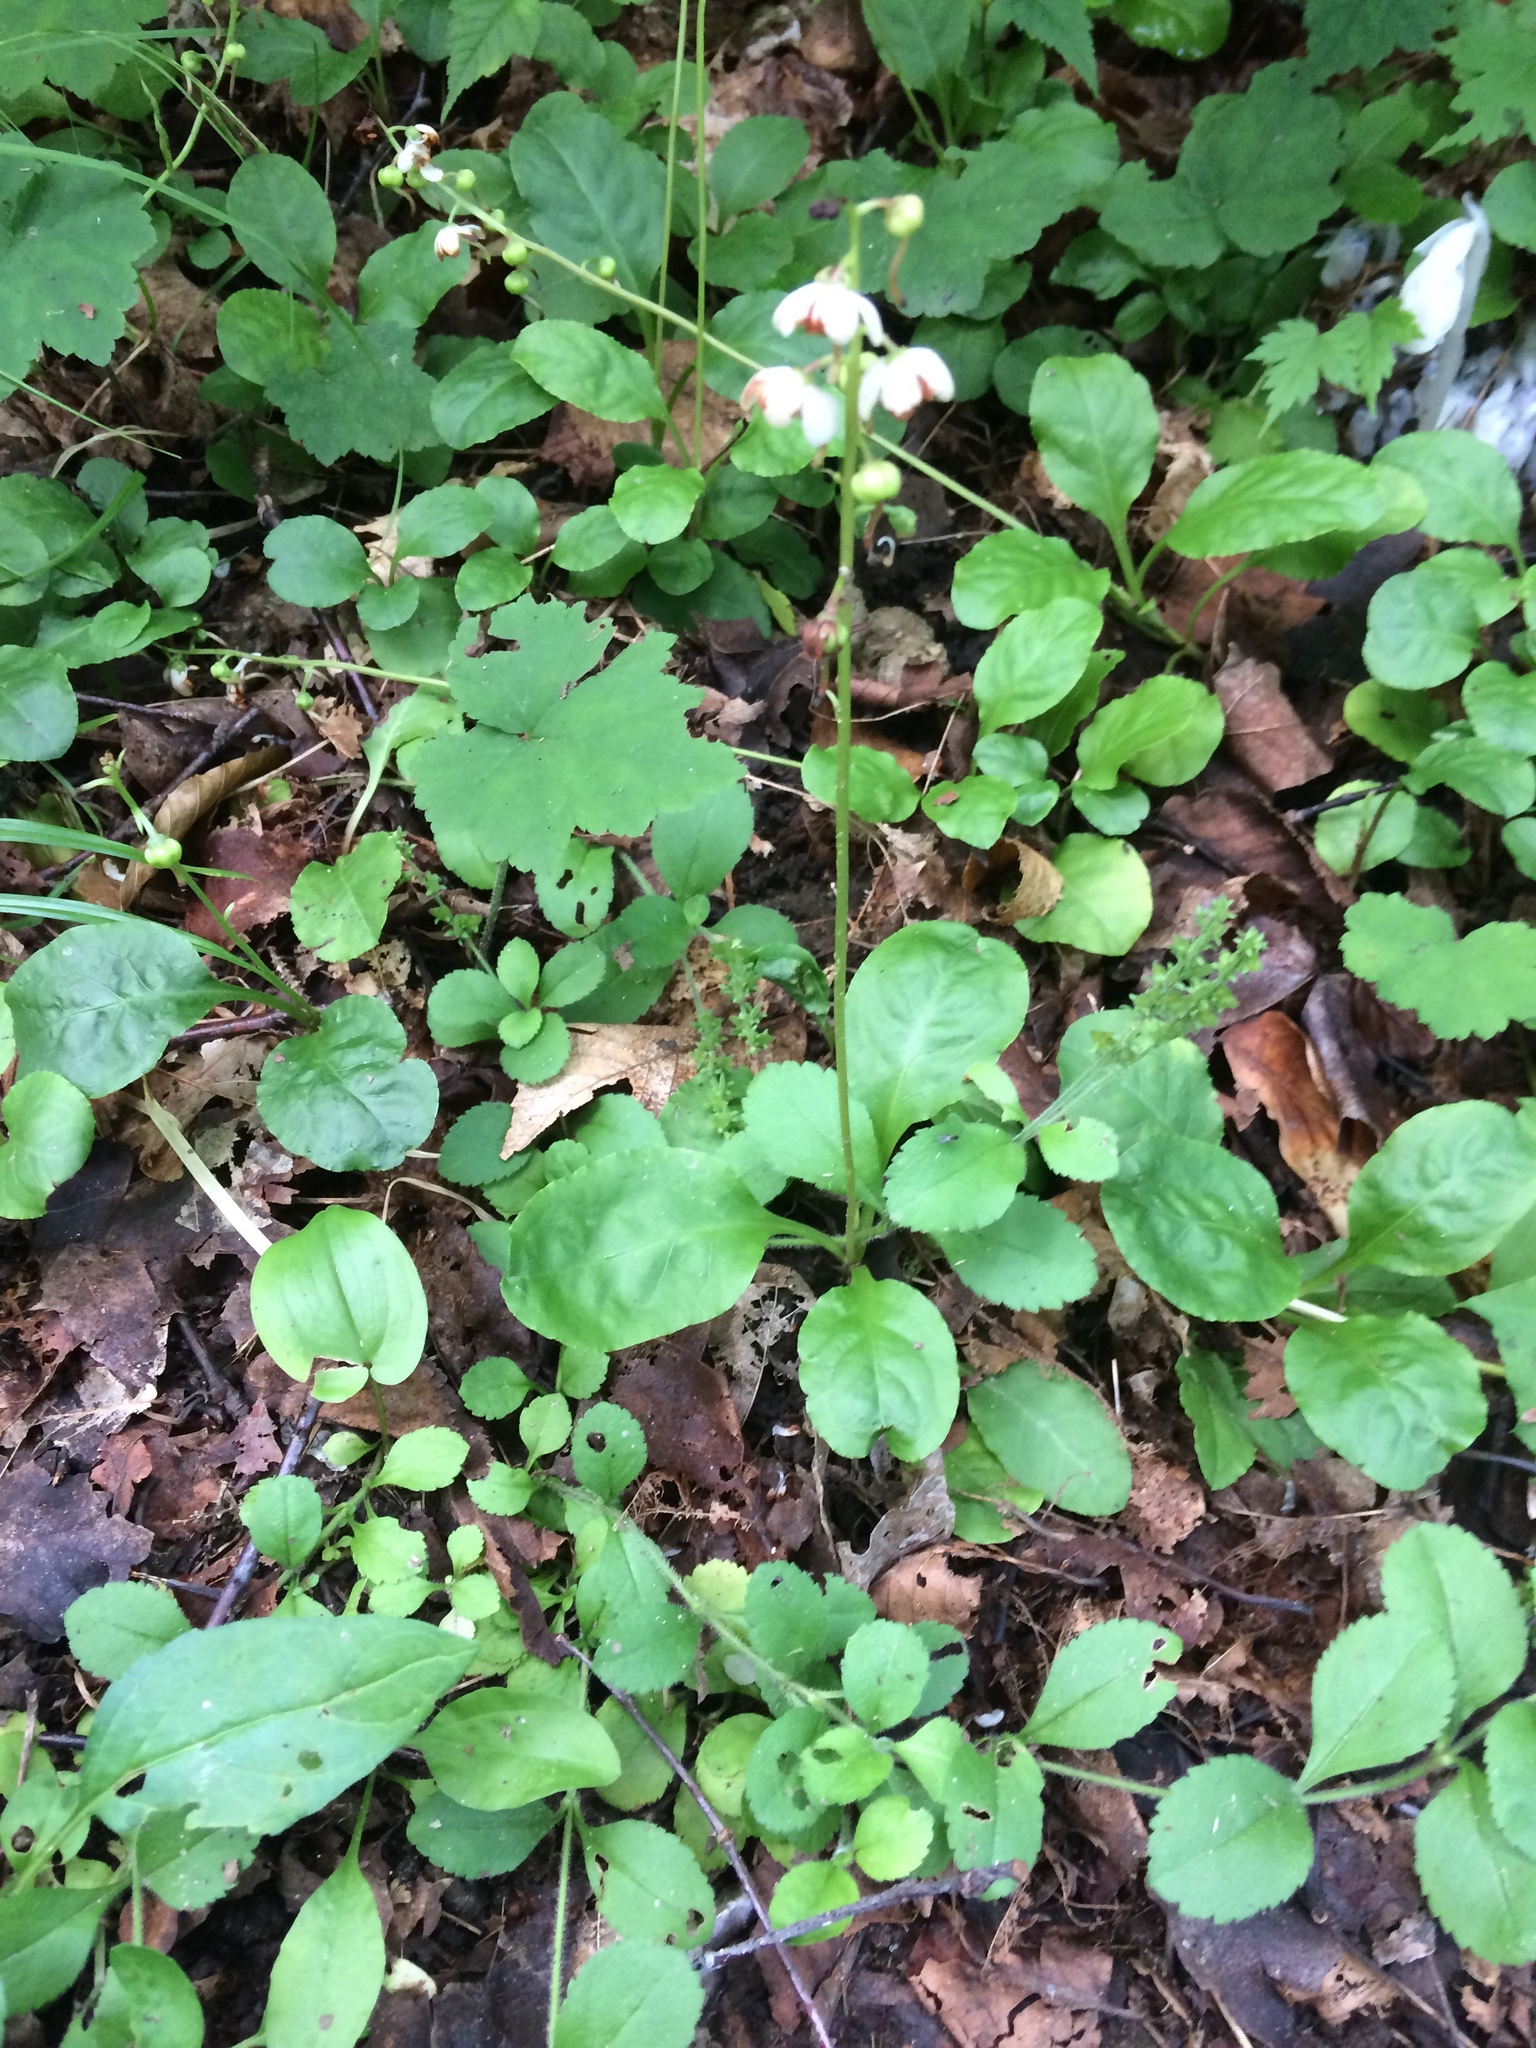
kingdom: Plantae
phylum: Tracheophyta
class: Magnoliopsida
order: Ericales
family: Ericaceae
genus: Pyrola
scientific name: Pyrola elliptica
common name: Shinleaf
